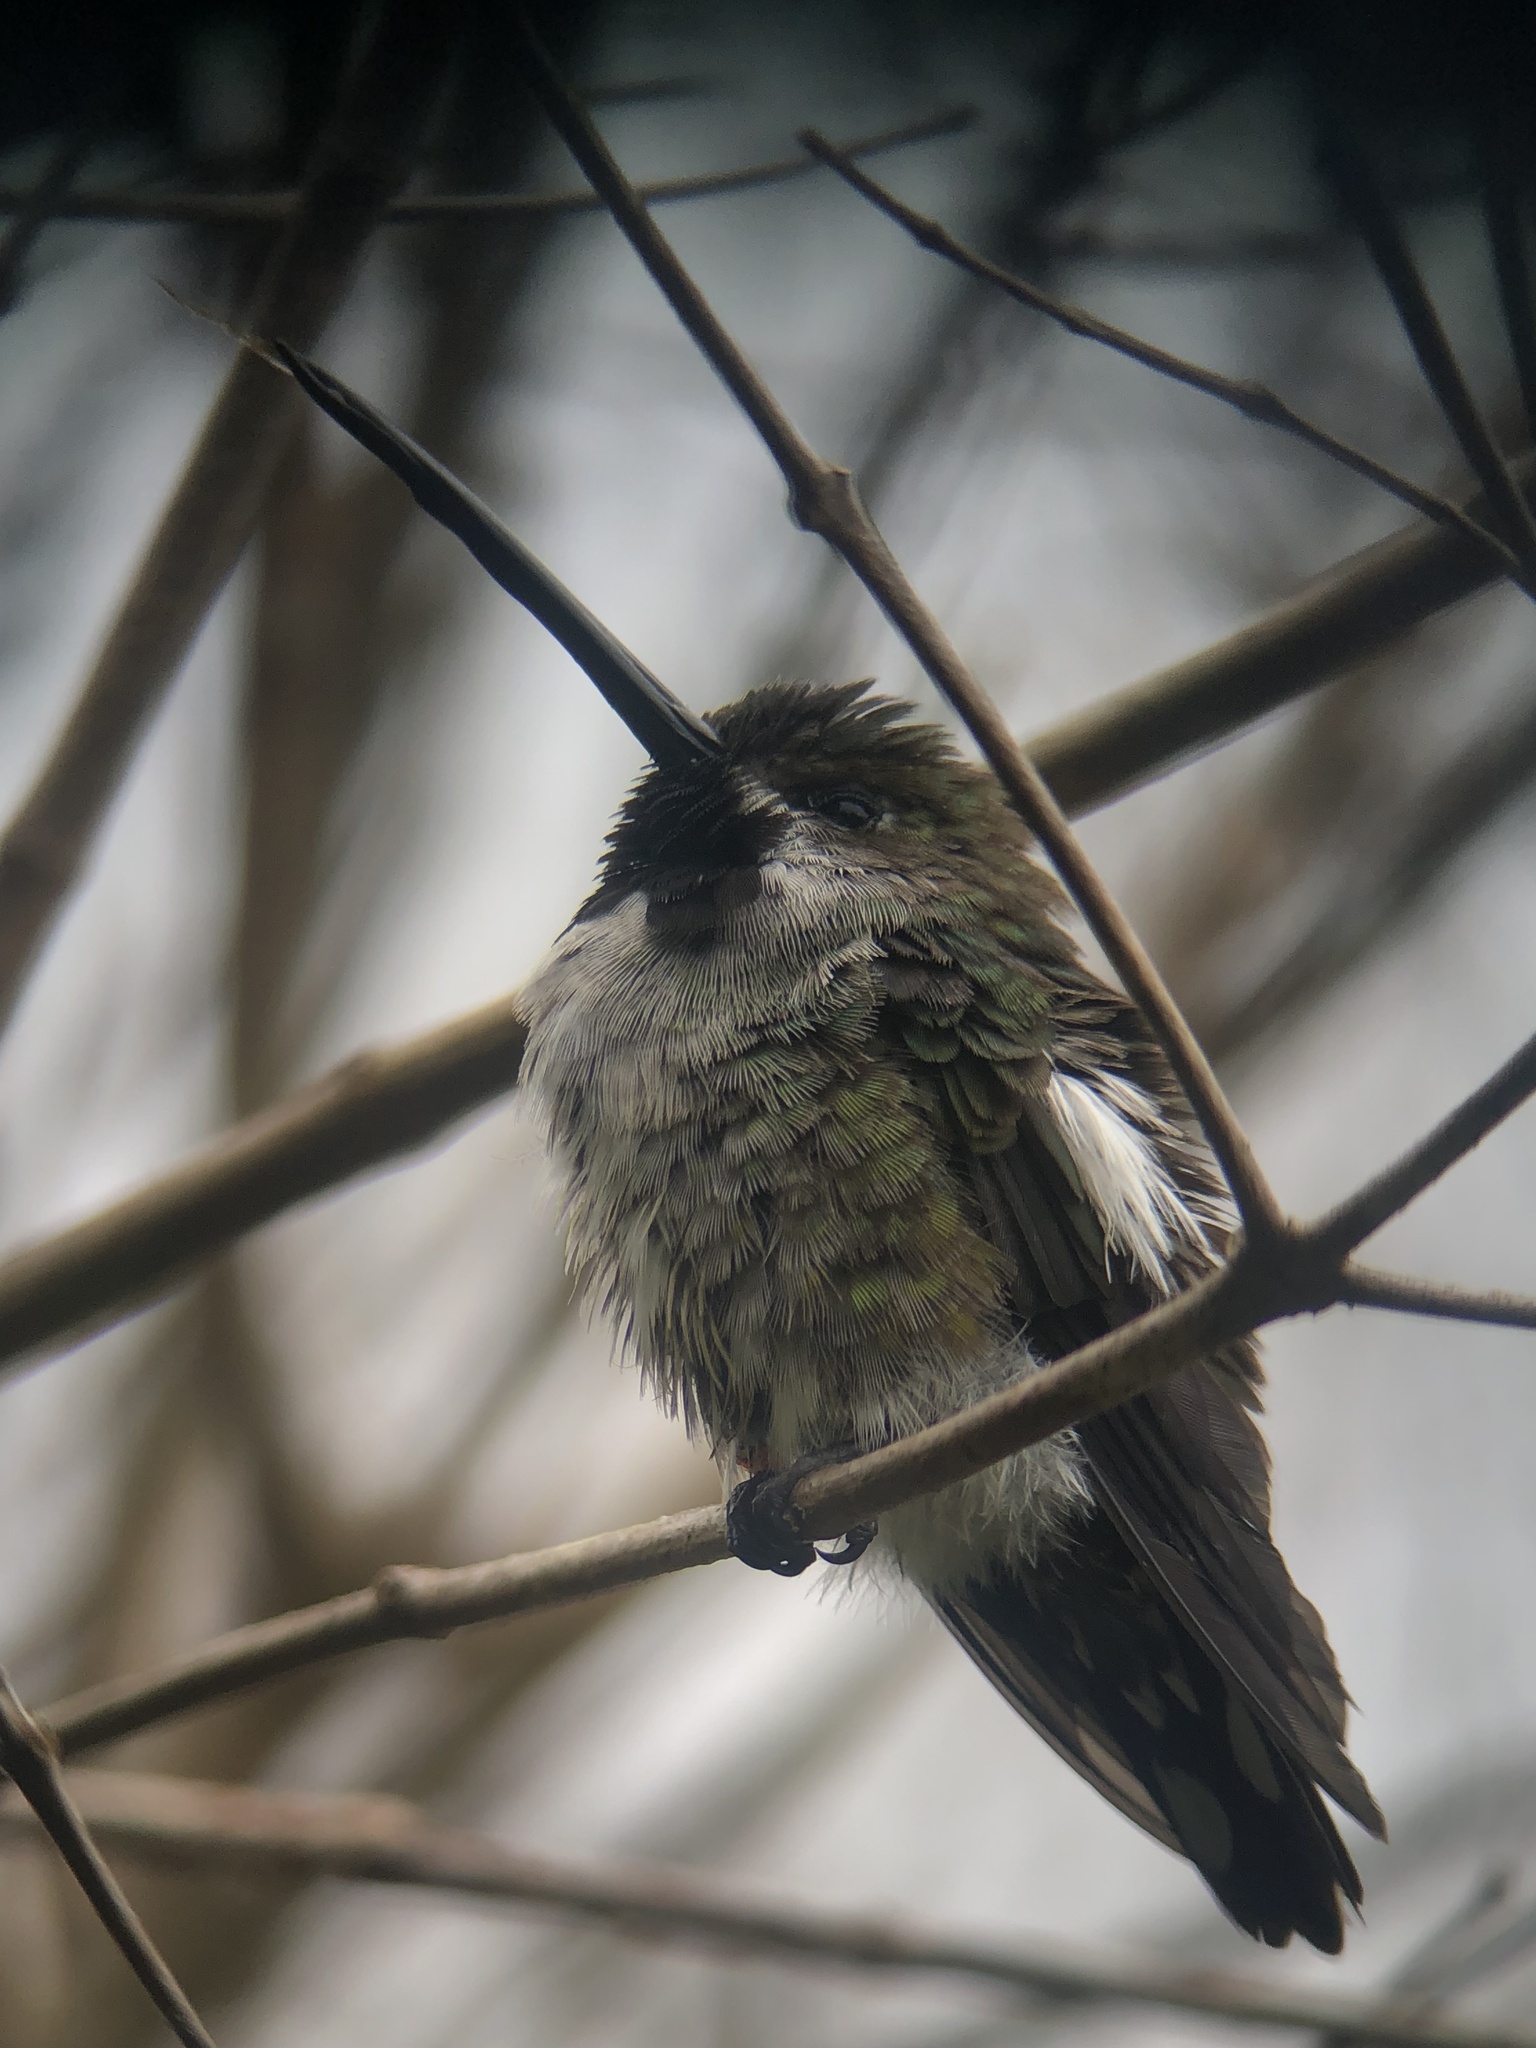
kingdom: Animalia
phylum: Chordata
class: Aves
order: Apodiformes
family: Trochilidae
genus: Heliomaster
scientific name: Heliomaster longirostris
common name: Long-billed starthroat
